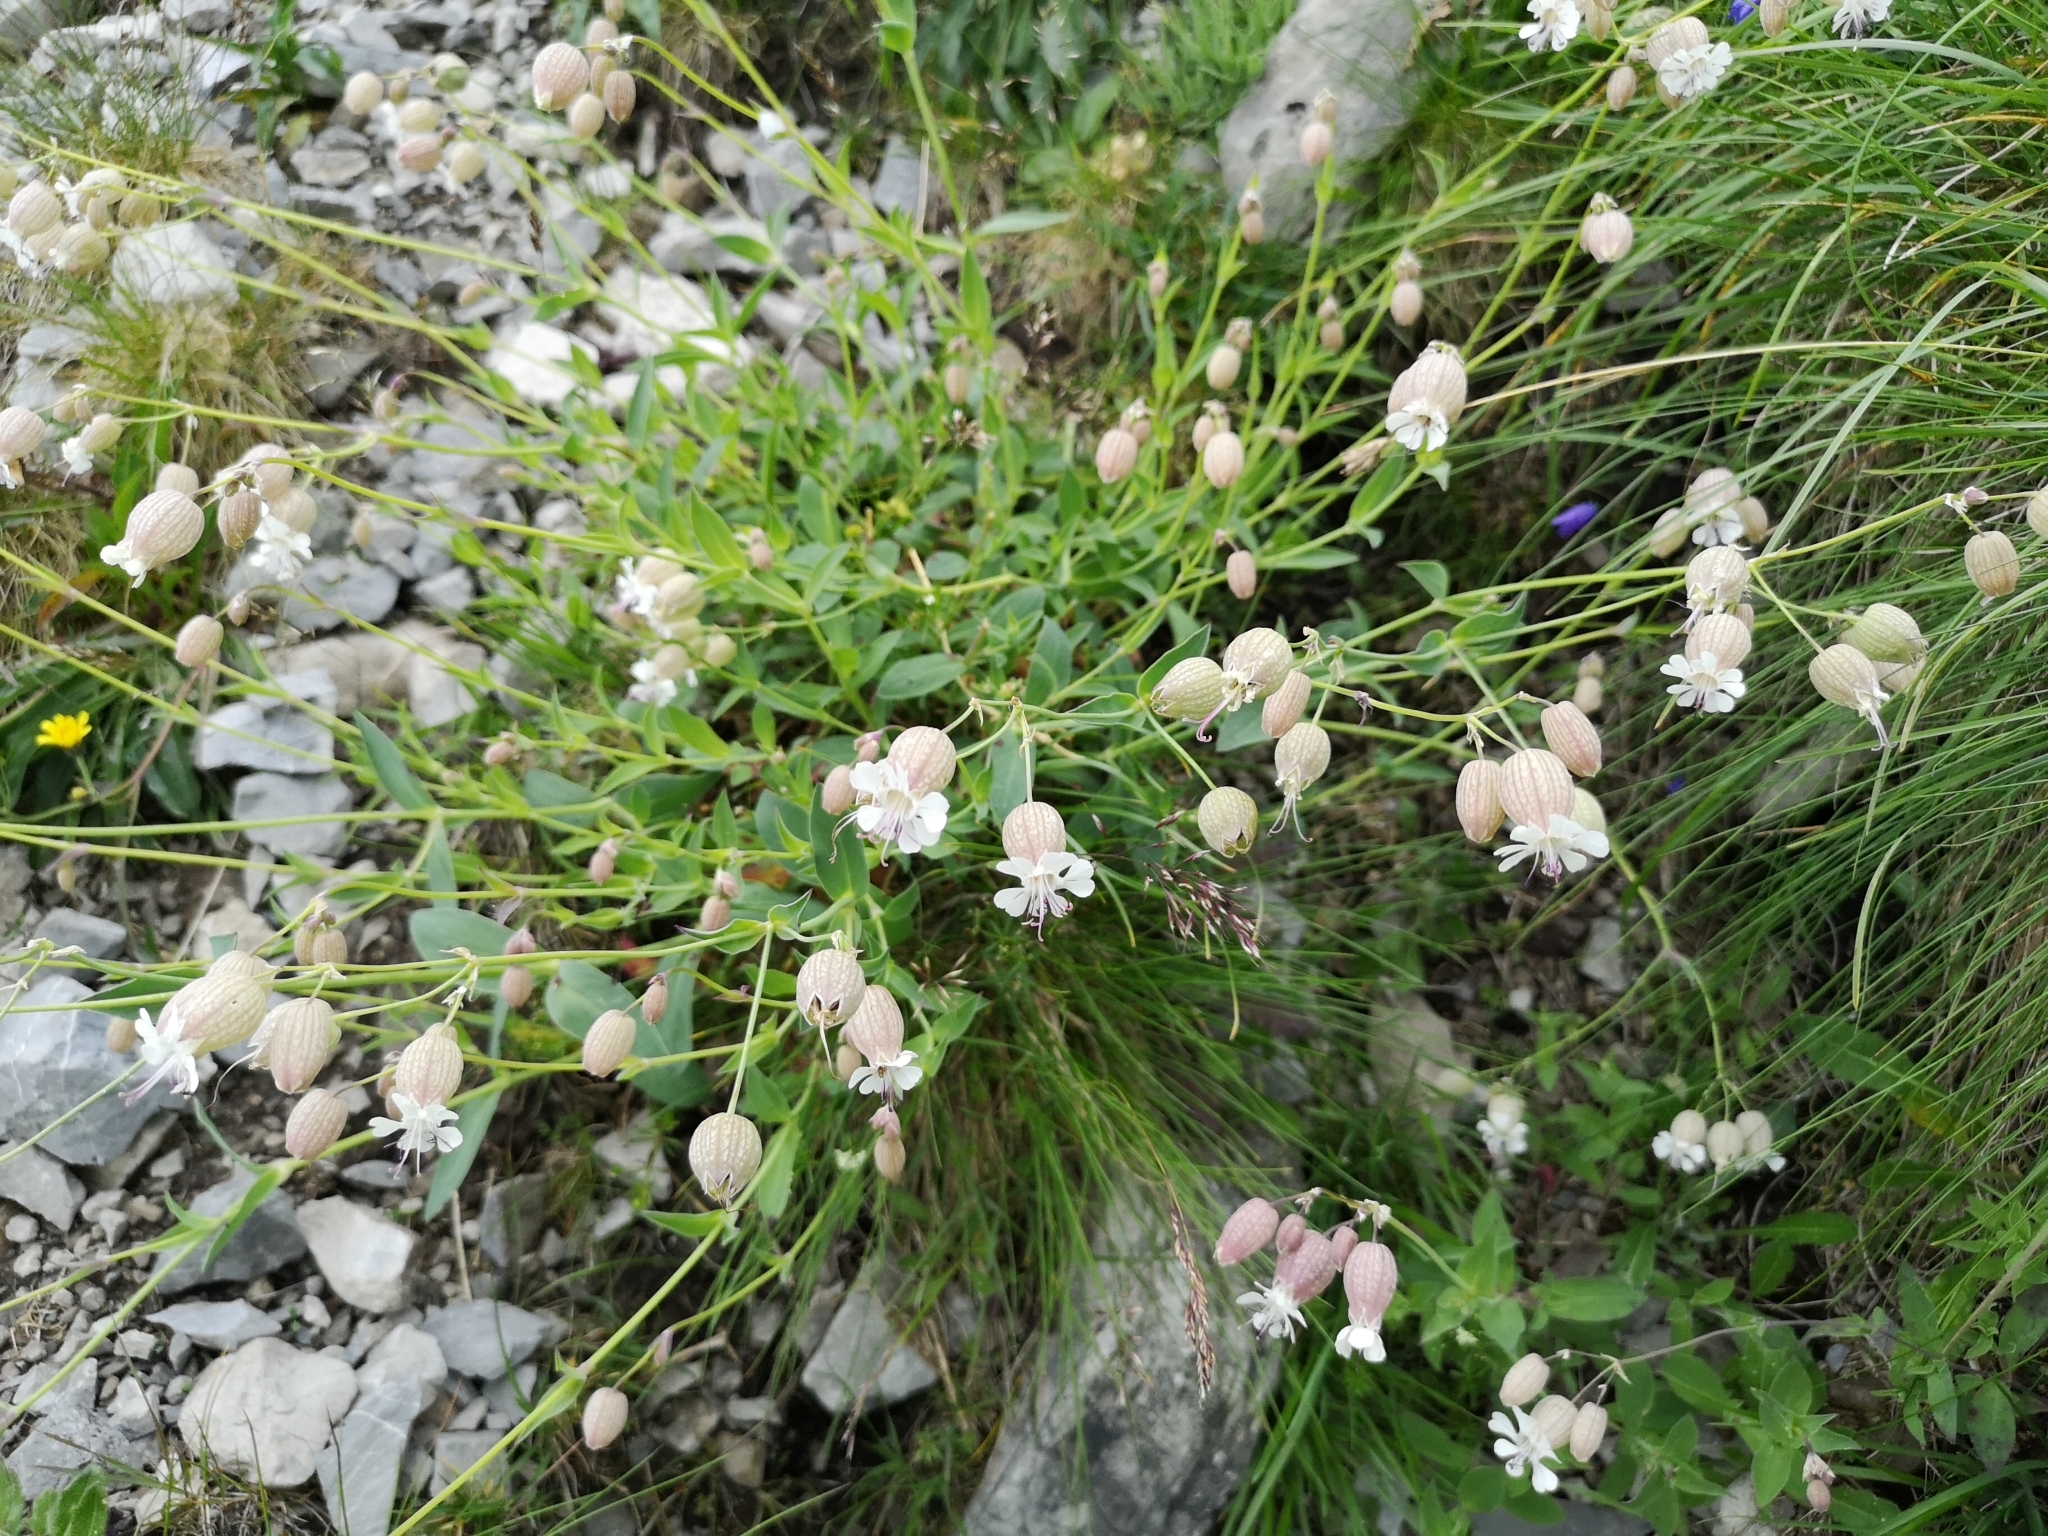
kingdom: Plantae
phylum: Tracheophyta
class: Magnoliopsida
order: Caryophyllales
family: Caryophyllaceae
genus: Silene
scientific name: Silene vulgaris
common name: Bladder campion
